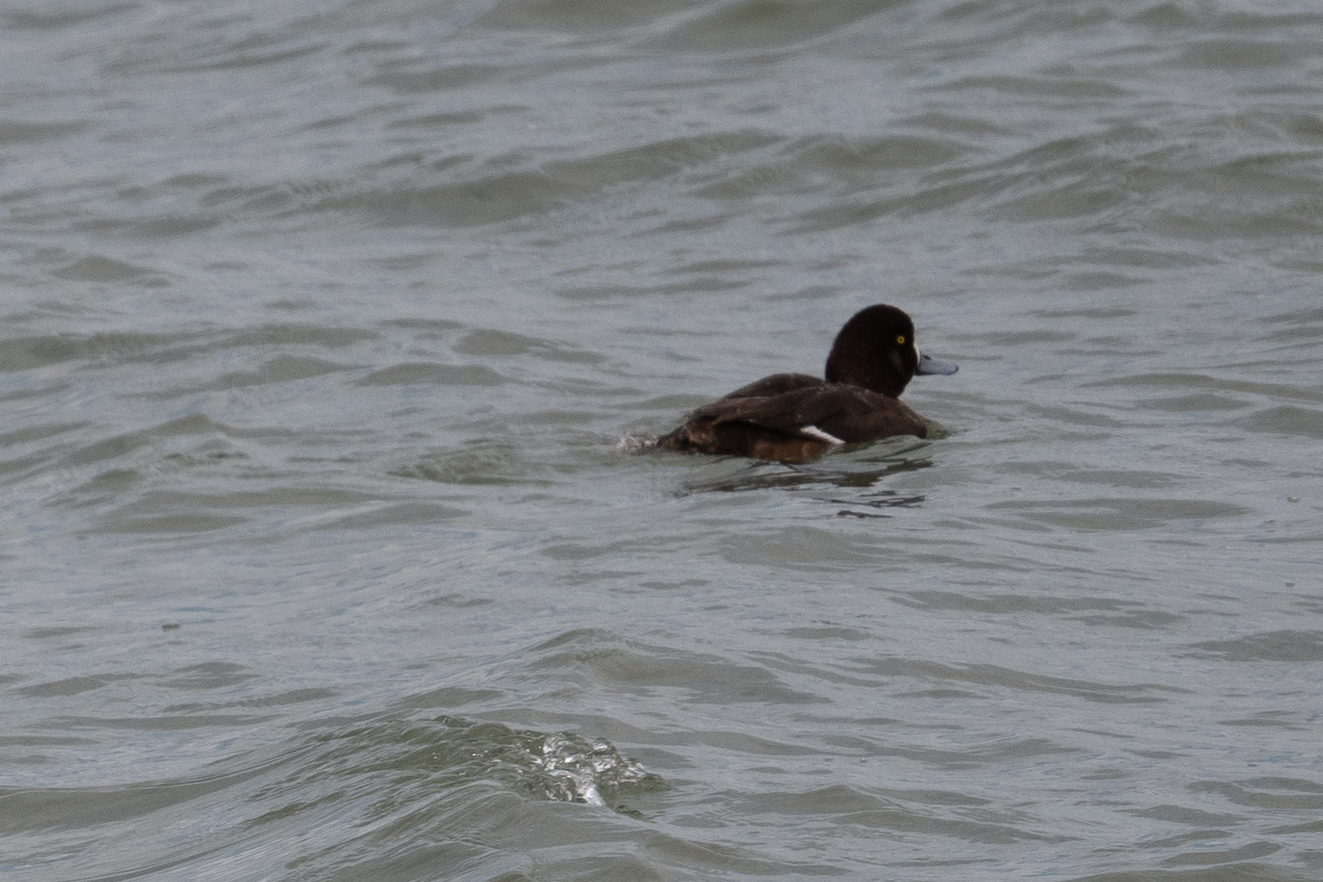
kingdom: Animalia
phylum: Chordata
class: Aves
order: Anseriformes
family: Anatidae
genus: Aythya
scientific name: Aythya marila
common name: Greater scaup
